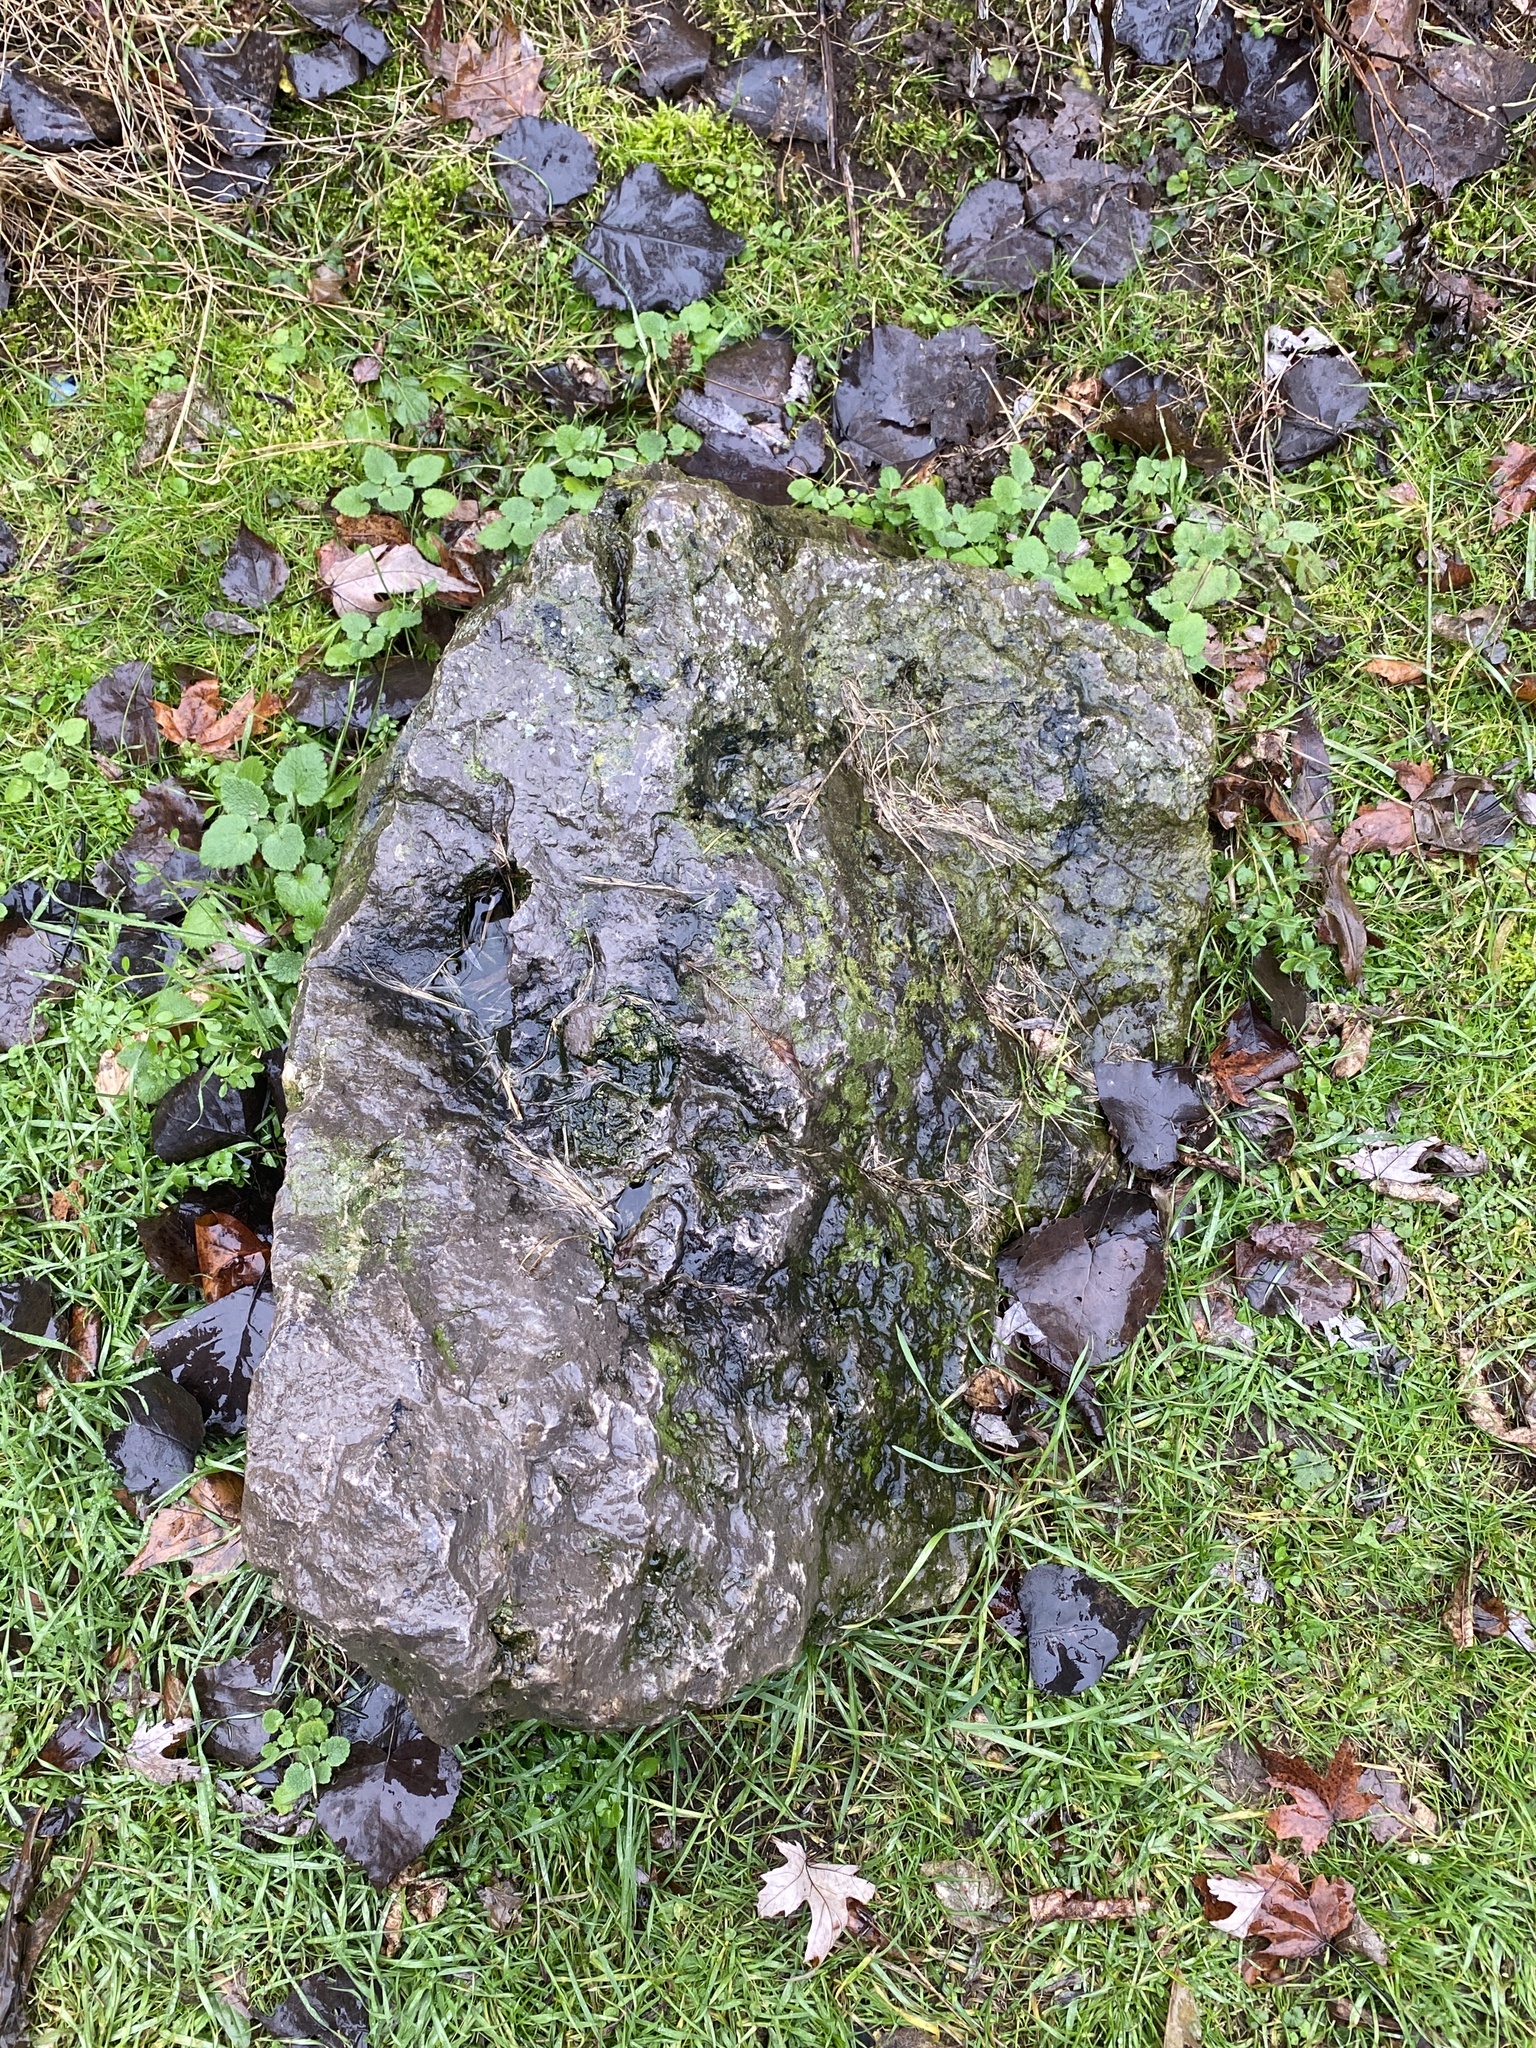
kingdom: Plantae
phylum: Tracheophyta
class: Magnoliopsida
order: Lamiales
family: Lamiaceae
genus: Prunella
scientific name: Prunella vulgaris
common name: Heal-all
